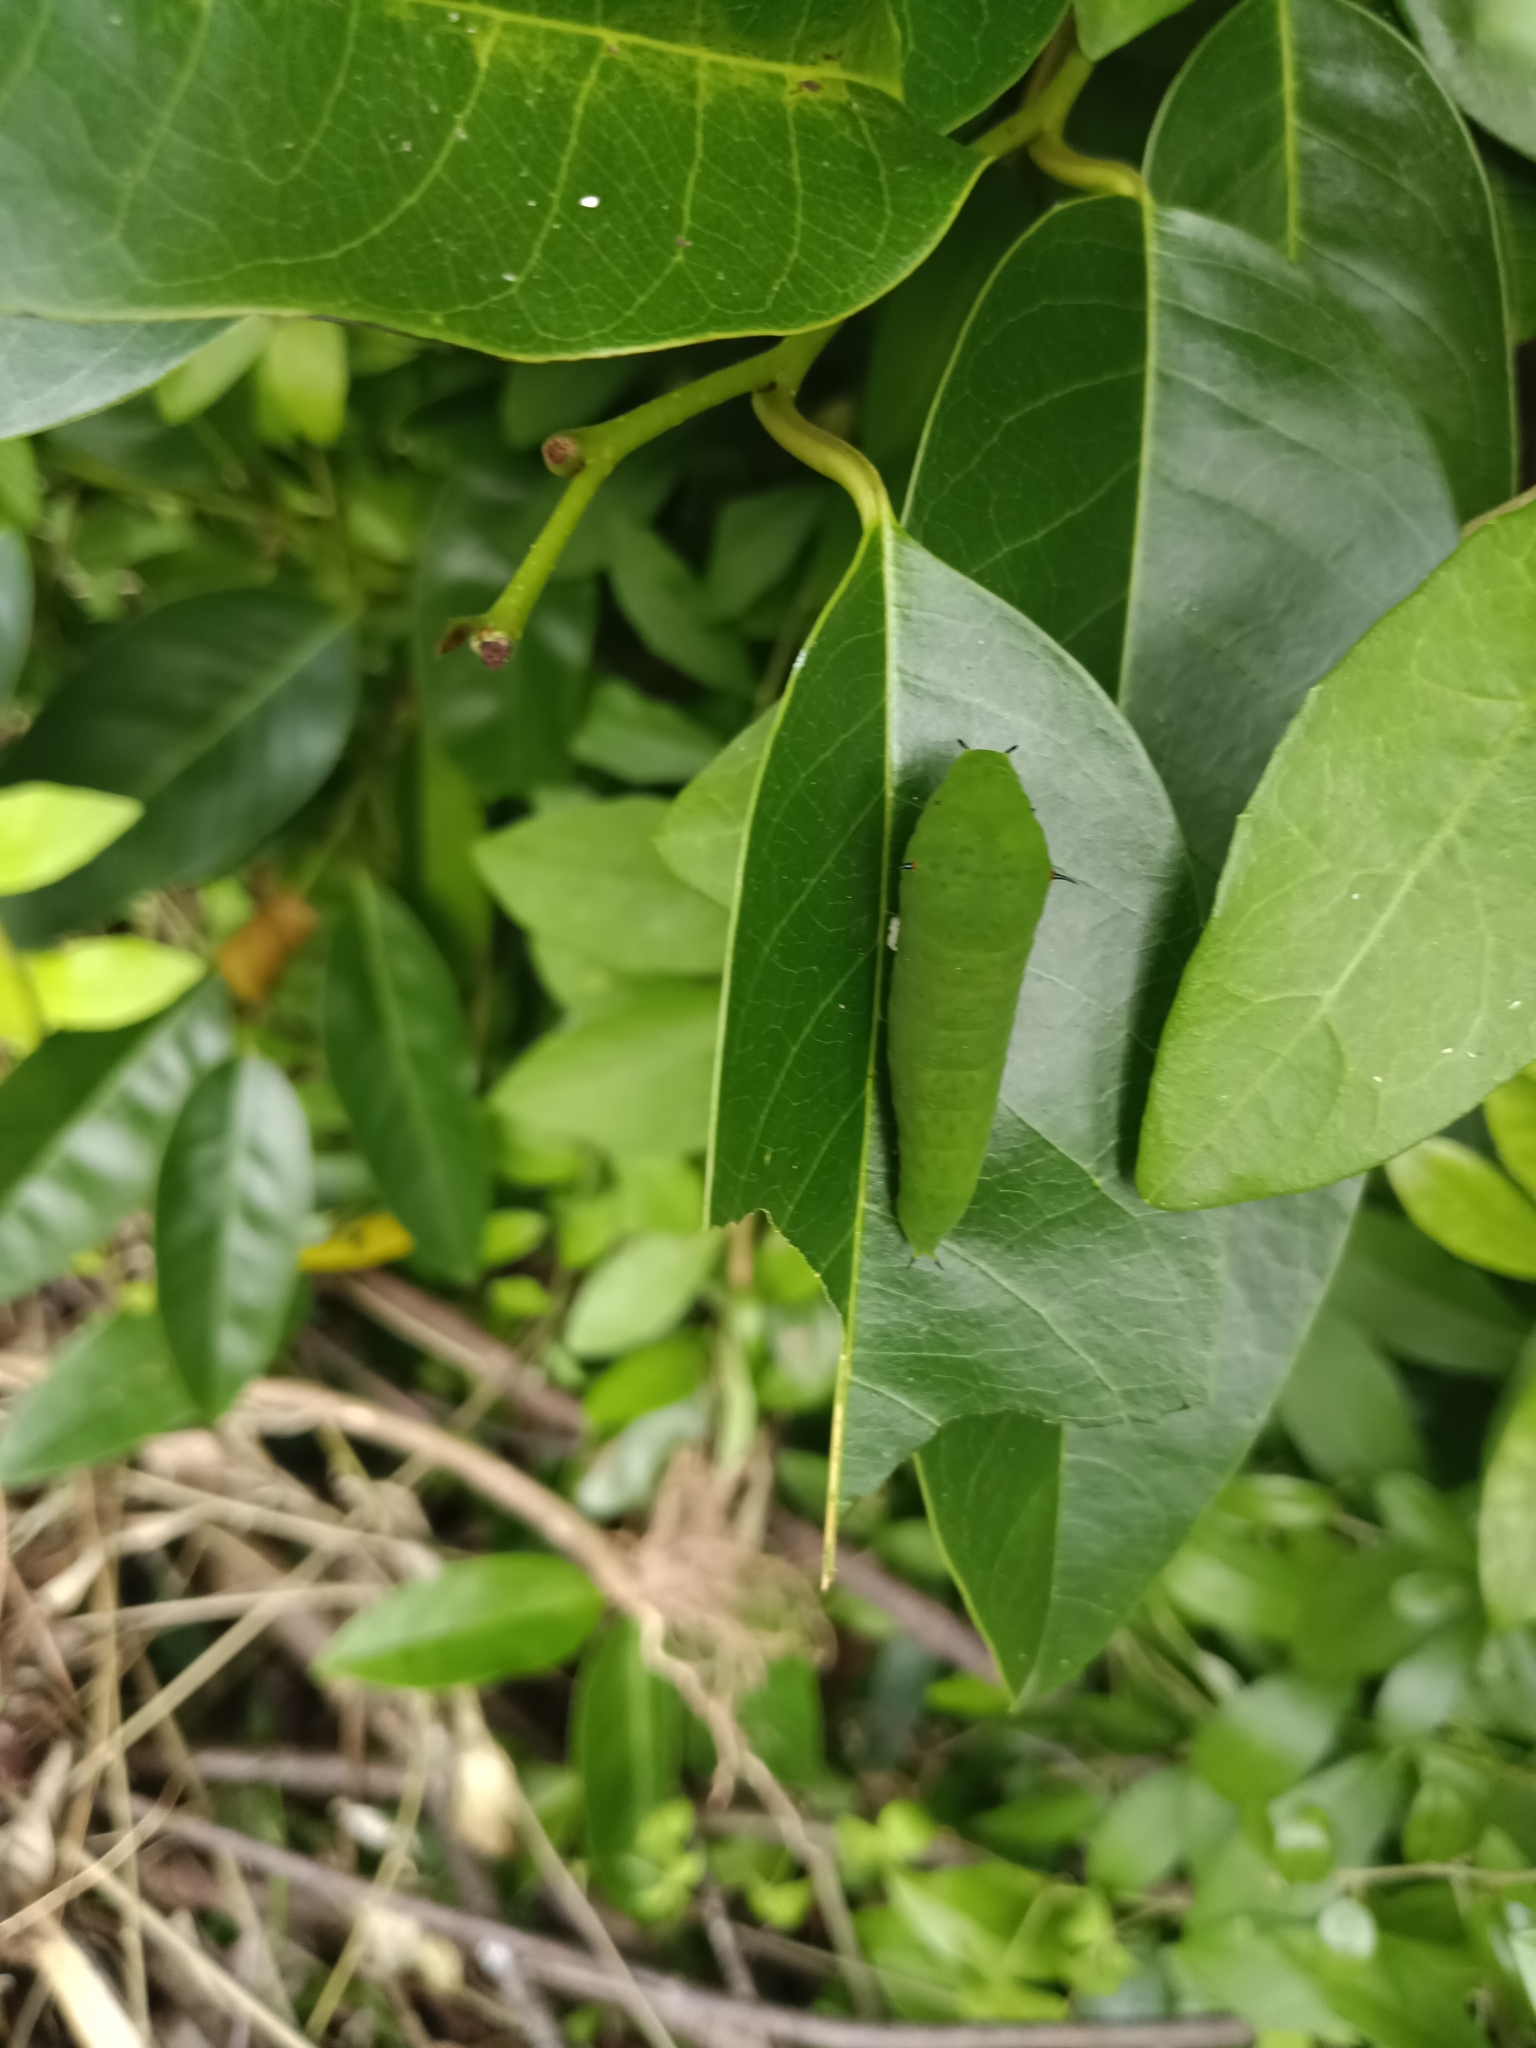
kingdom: Animalia
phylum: Arthropoda
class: Insecta
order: Lepidoptera
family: Papilionidae
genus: Graphium
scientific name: Graphium agamemnon
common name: Tailed jay
